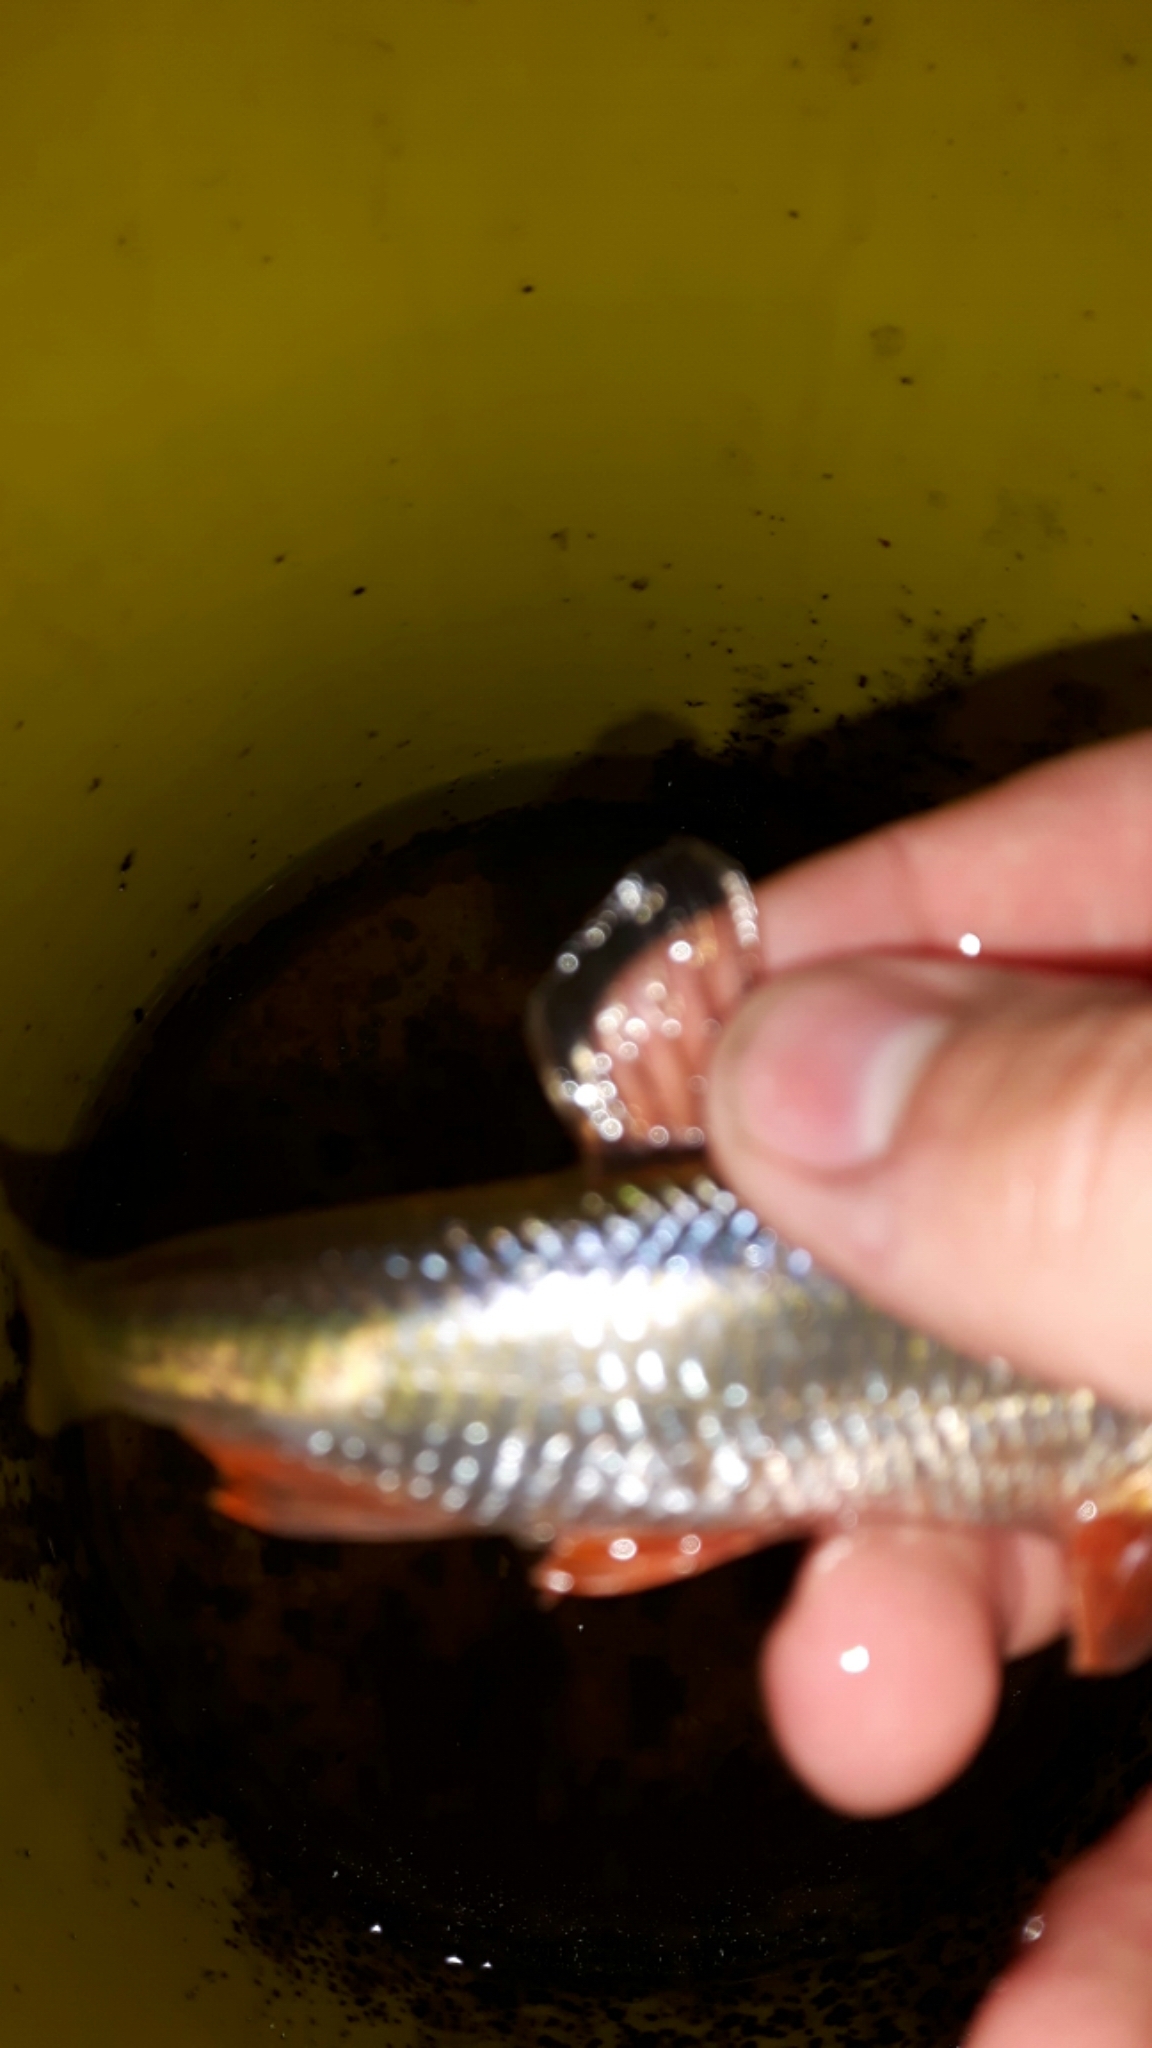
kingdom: Animalia
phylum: Chordata
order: Cypriniformes
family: Cyprinidae
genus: Luxilus
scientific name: Luxilus cornutus
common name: Common shiner
